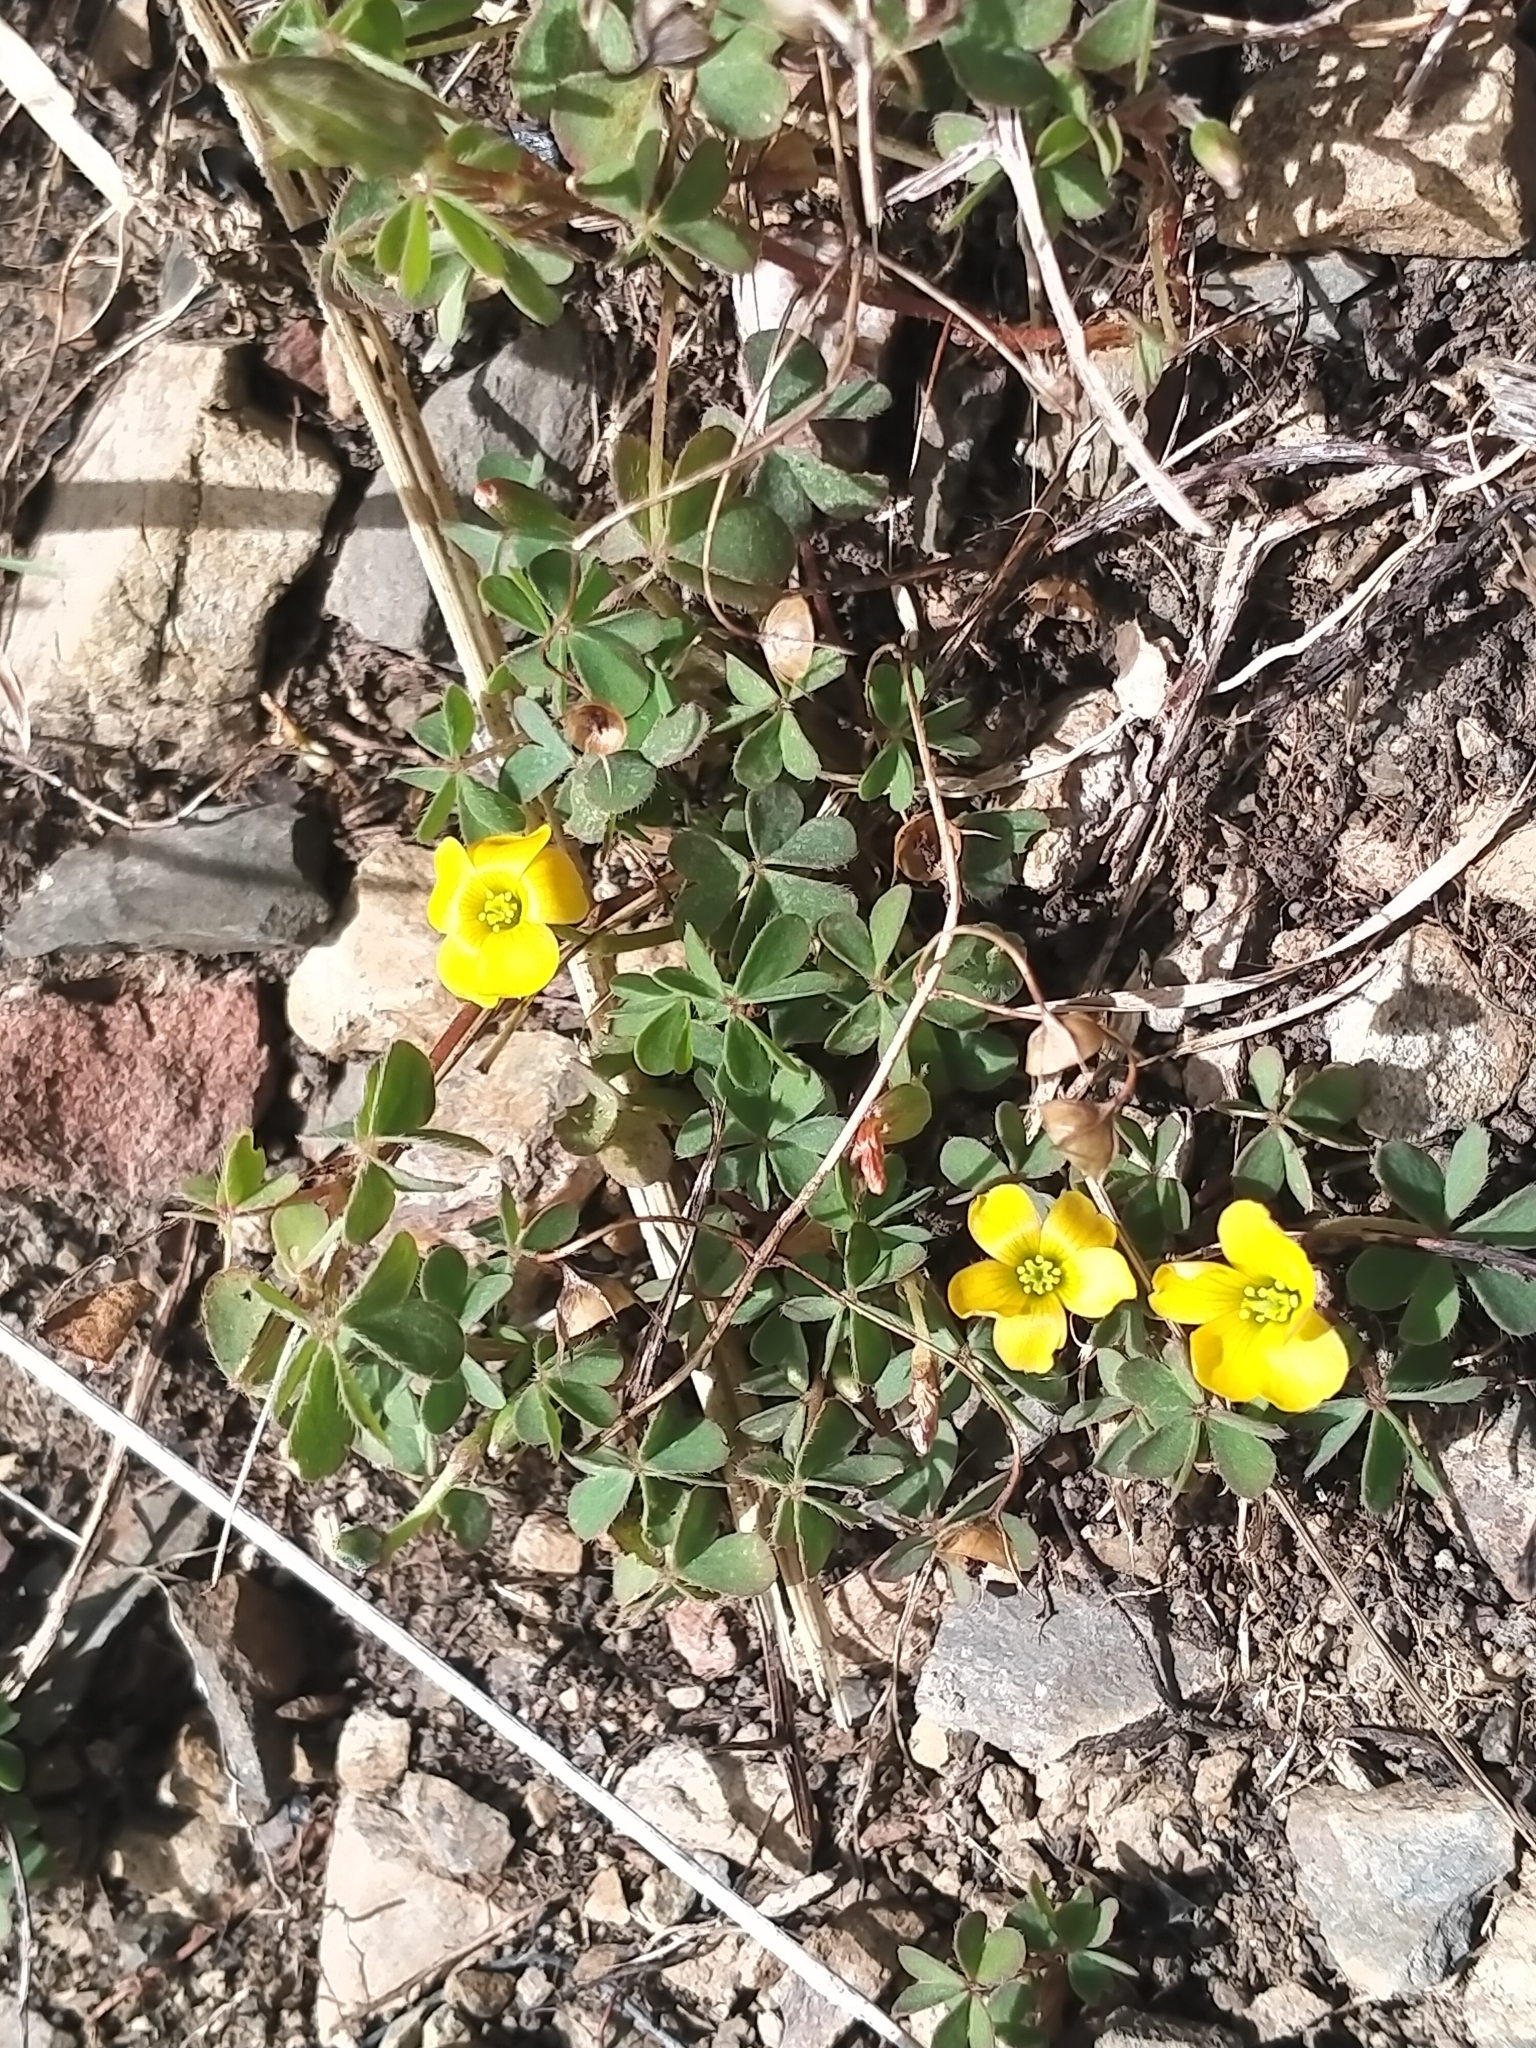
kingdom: Plantae
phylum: Tracheophyta
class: Magnoliopsida
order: Oxalidales
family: Oxalidaceae
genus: Oxalis
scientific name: Oxalis exilis
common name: Least yellow-sorrel
